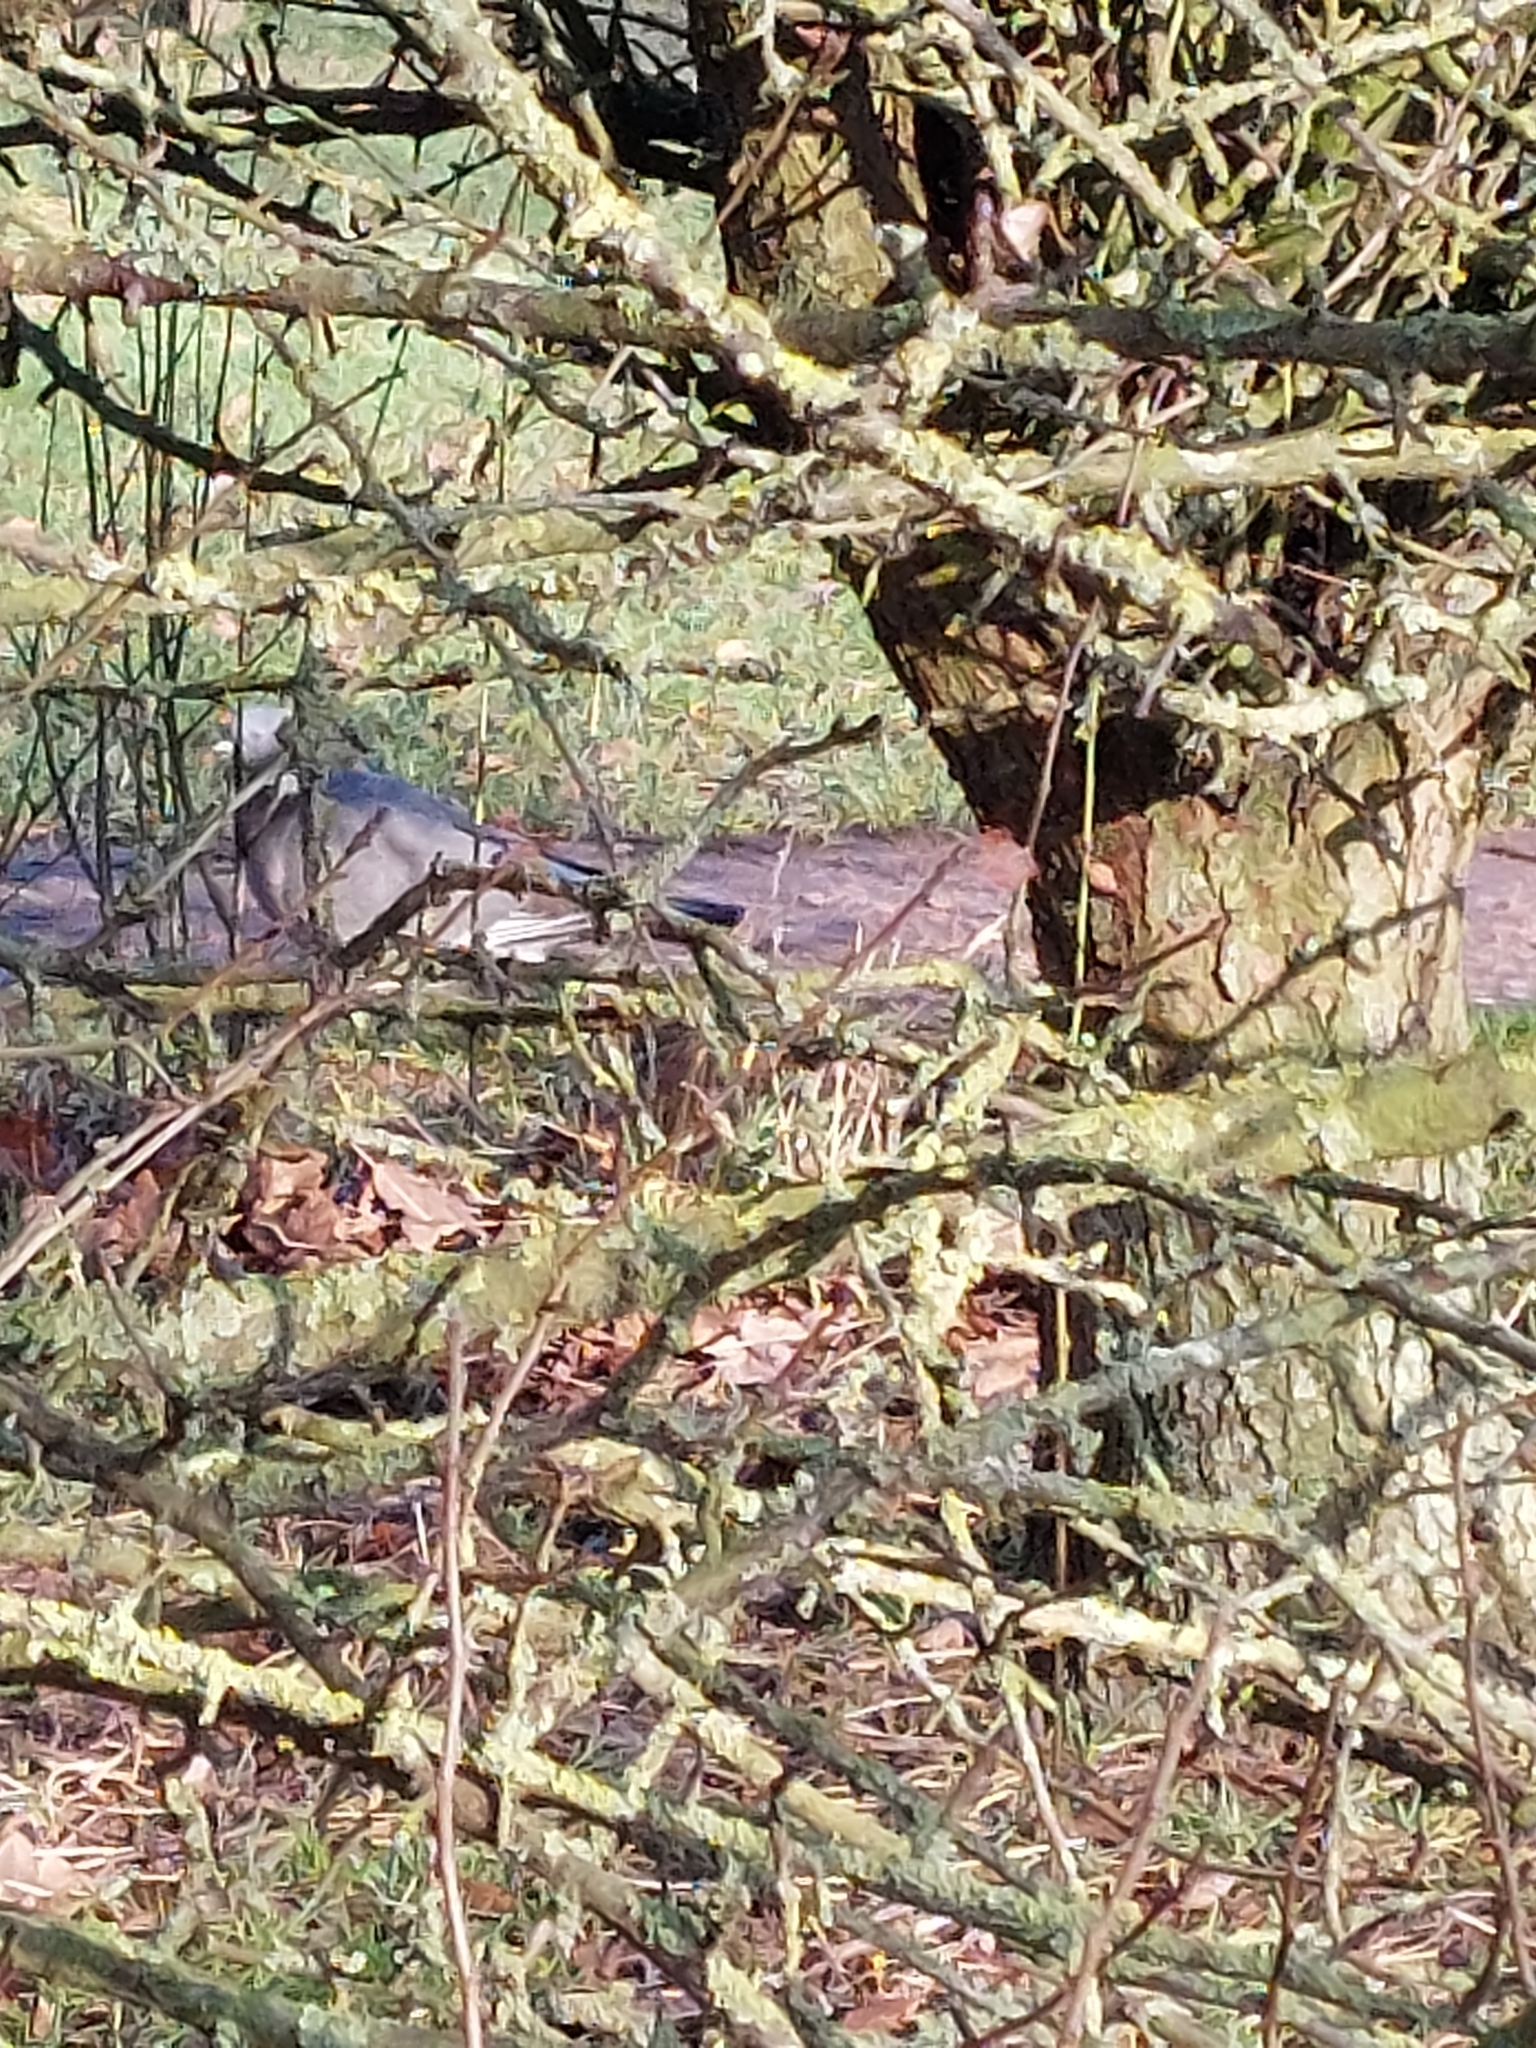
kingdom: Animalia
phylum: Chordata
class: Aves
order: Columbiformes
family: Columbidae
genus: Columba
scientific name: Columba palumbus
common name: Common wood pigeon
